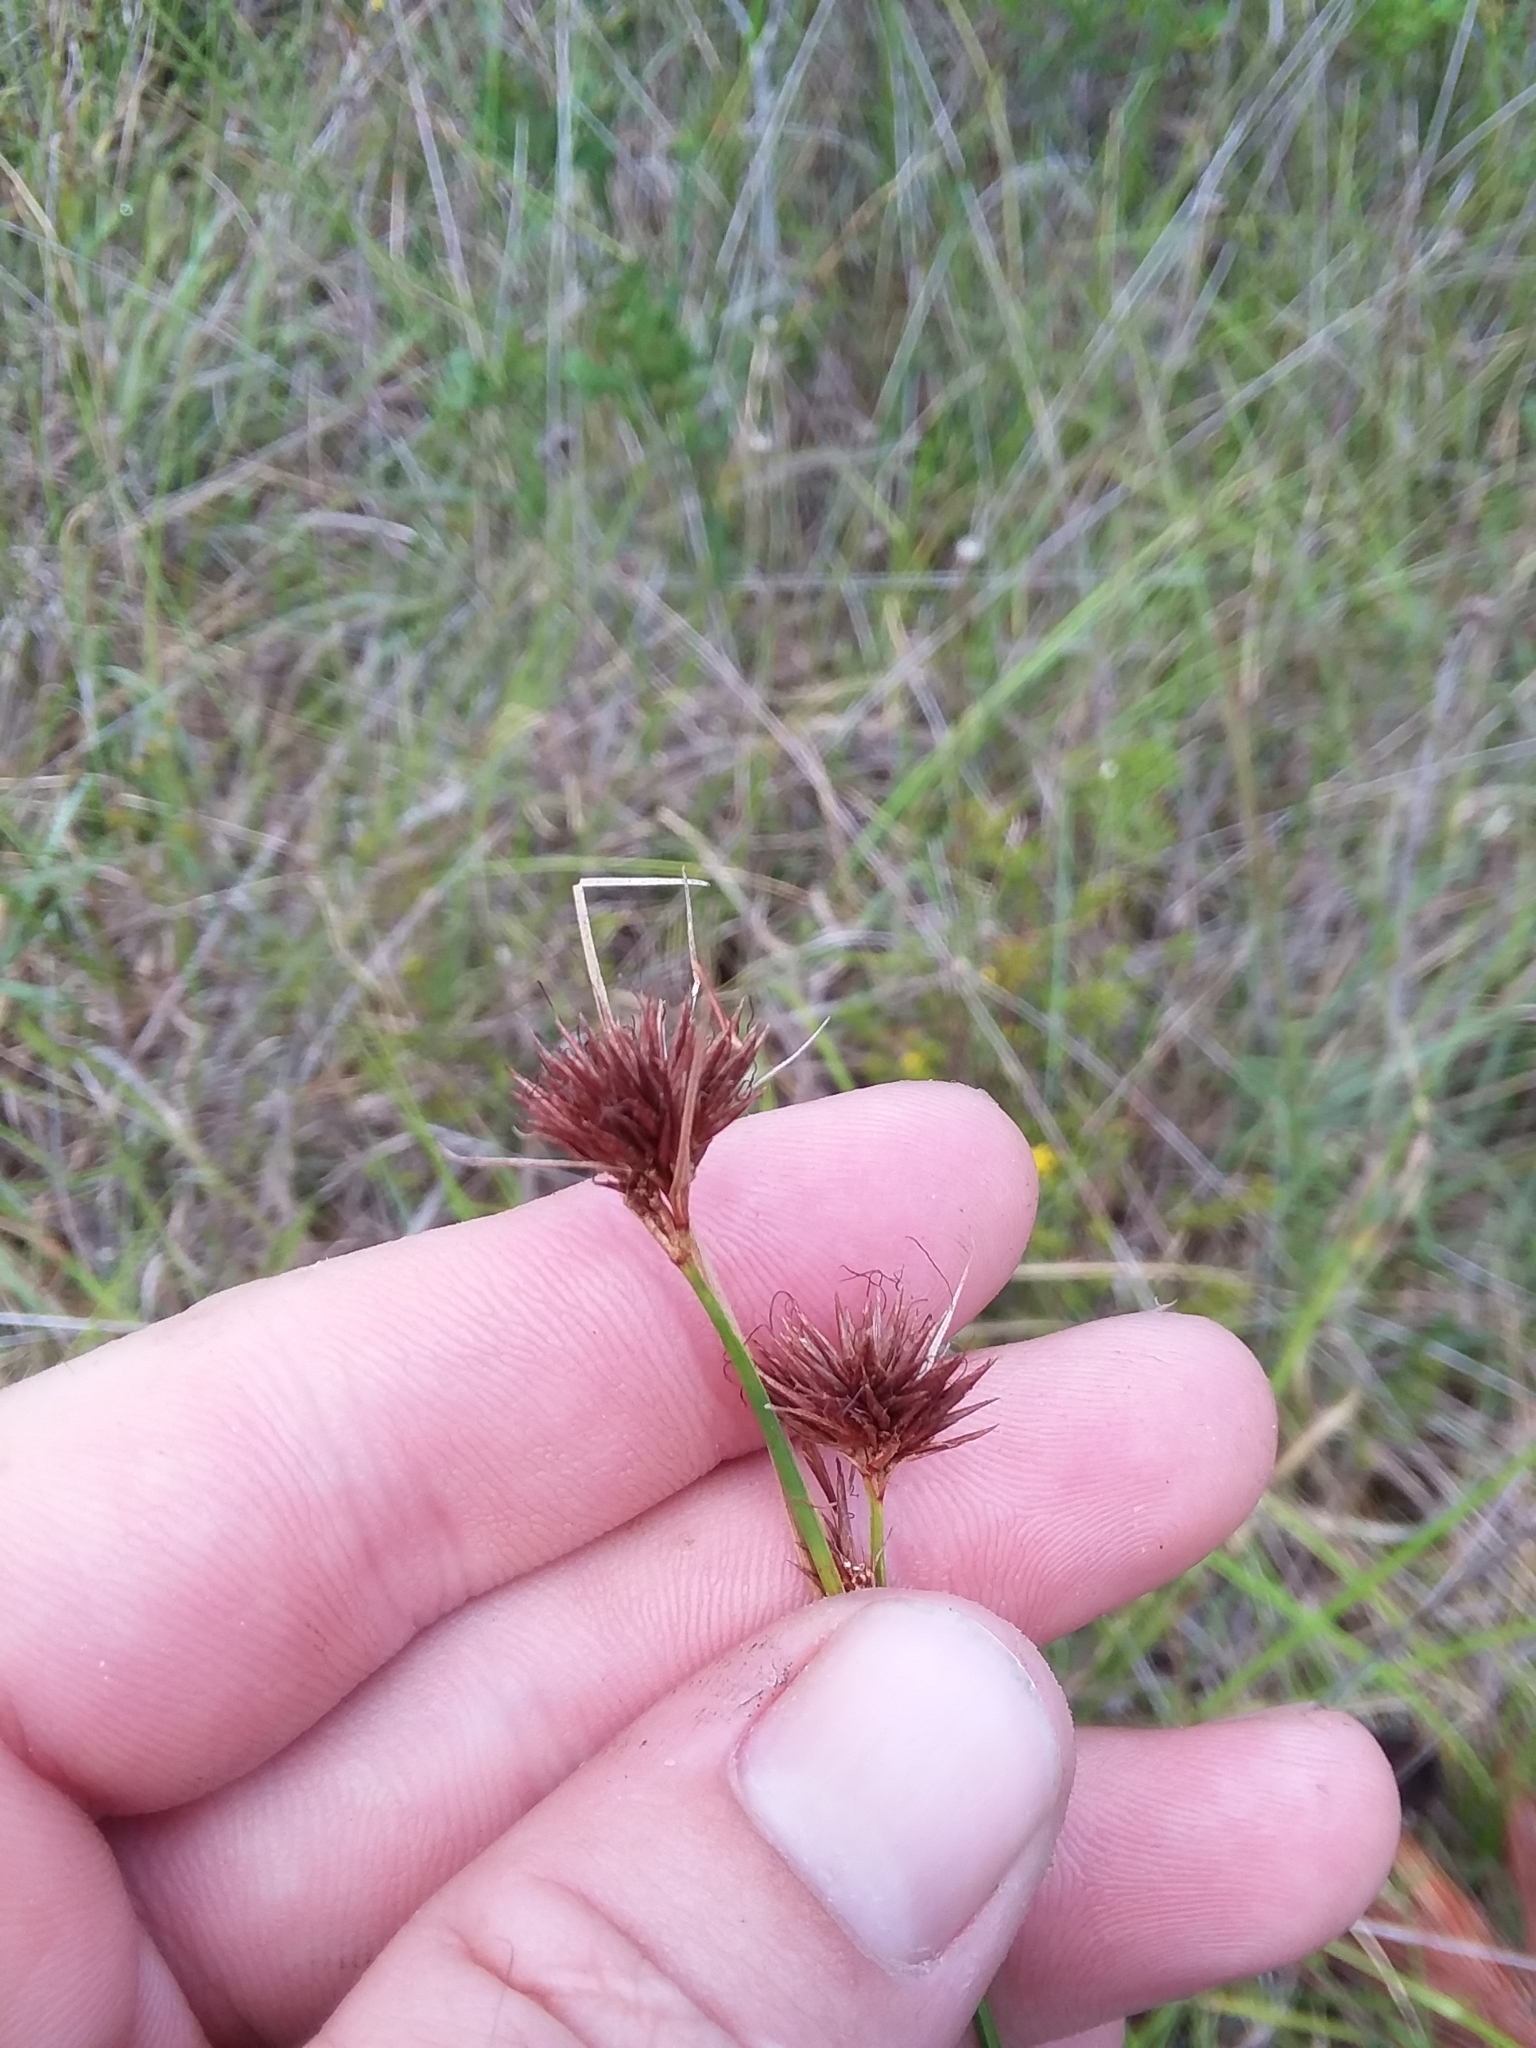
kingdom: Plantae
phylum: Tracheophyta
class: Liliopsida
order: Poales
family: Cyperaceae
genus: Rhynchospora
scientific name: Rhynchospora cephalantha
